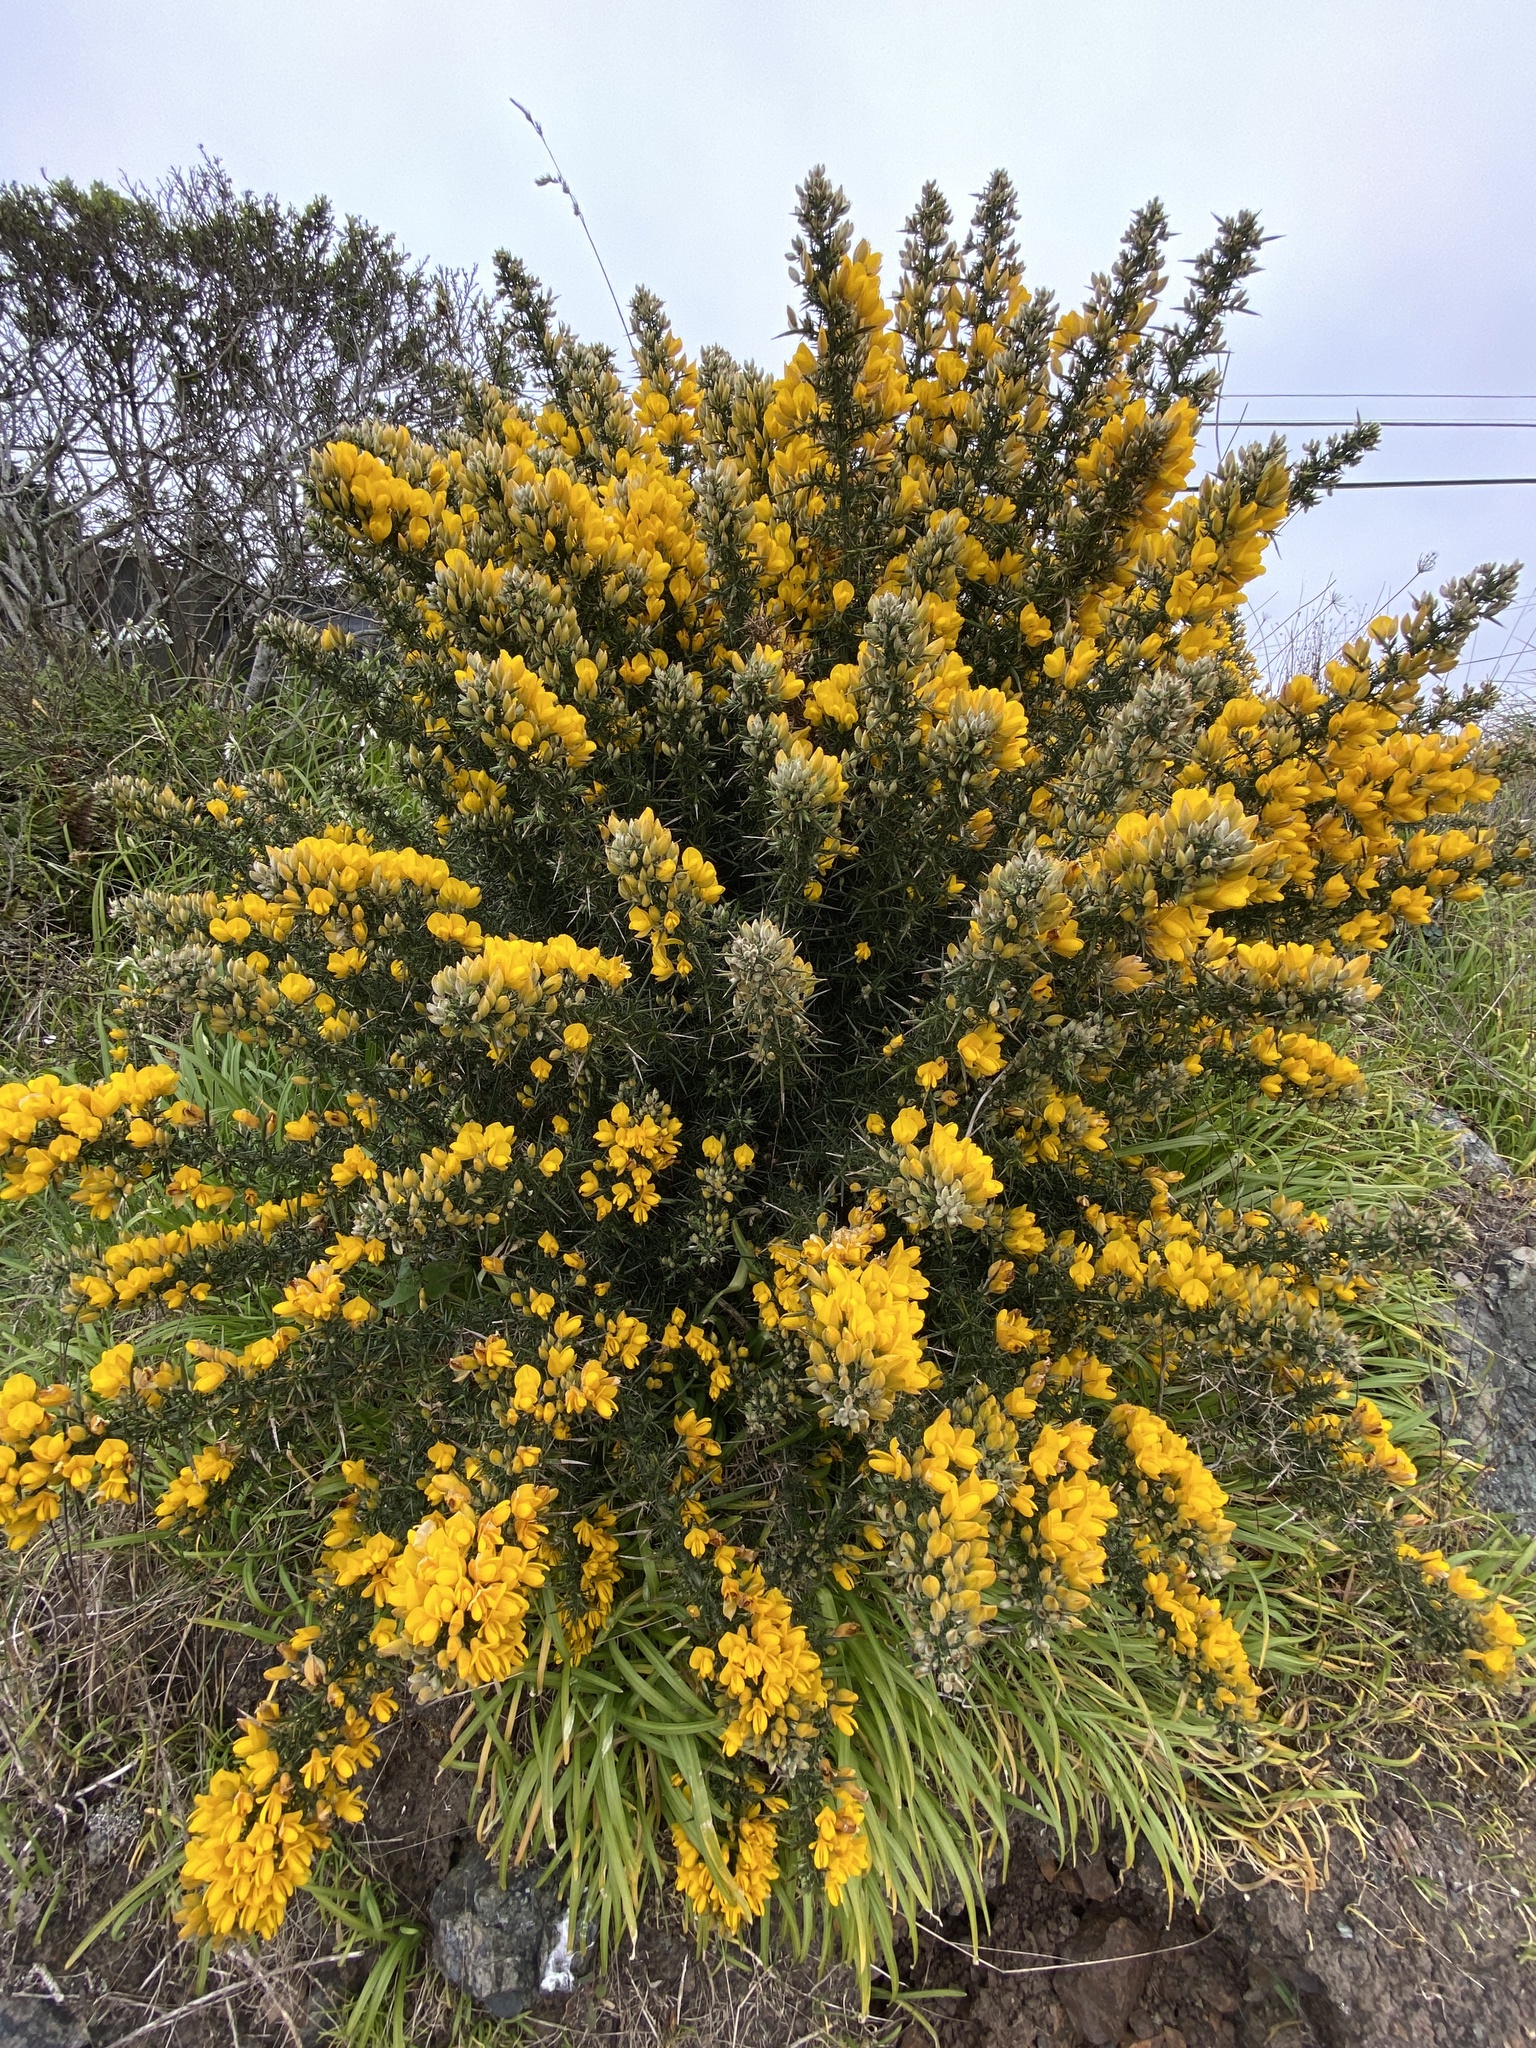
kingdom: Plantae
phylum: Tracheophyta
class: Magnoliopsida
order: Fabales
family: Fabaceae
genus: Ulex
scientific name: Ulex europaeus
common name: Common gorse
